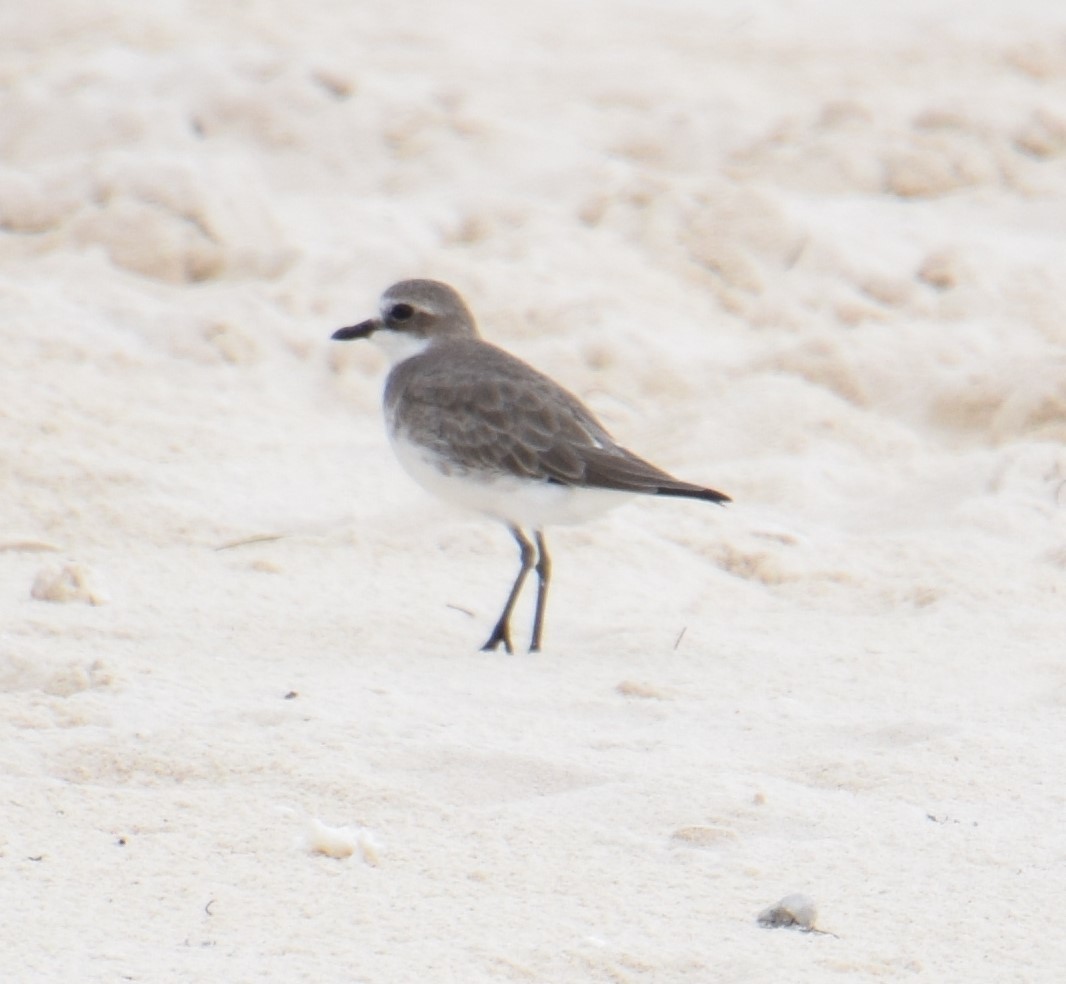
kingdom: Animalia
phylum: Chordata
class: Aves
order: Charadriiformes
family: Charadriidae
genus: Anarhynchus
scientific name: Anarhynchus
